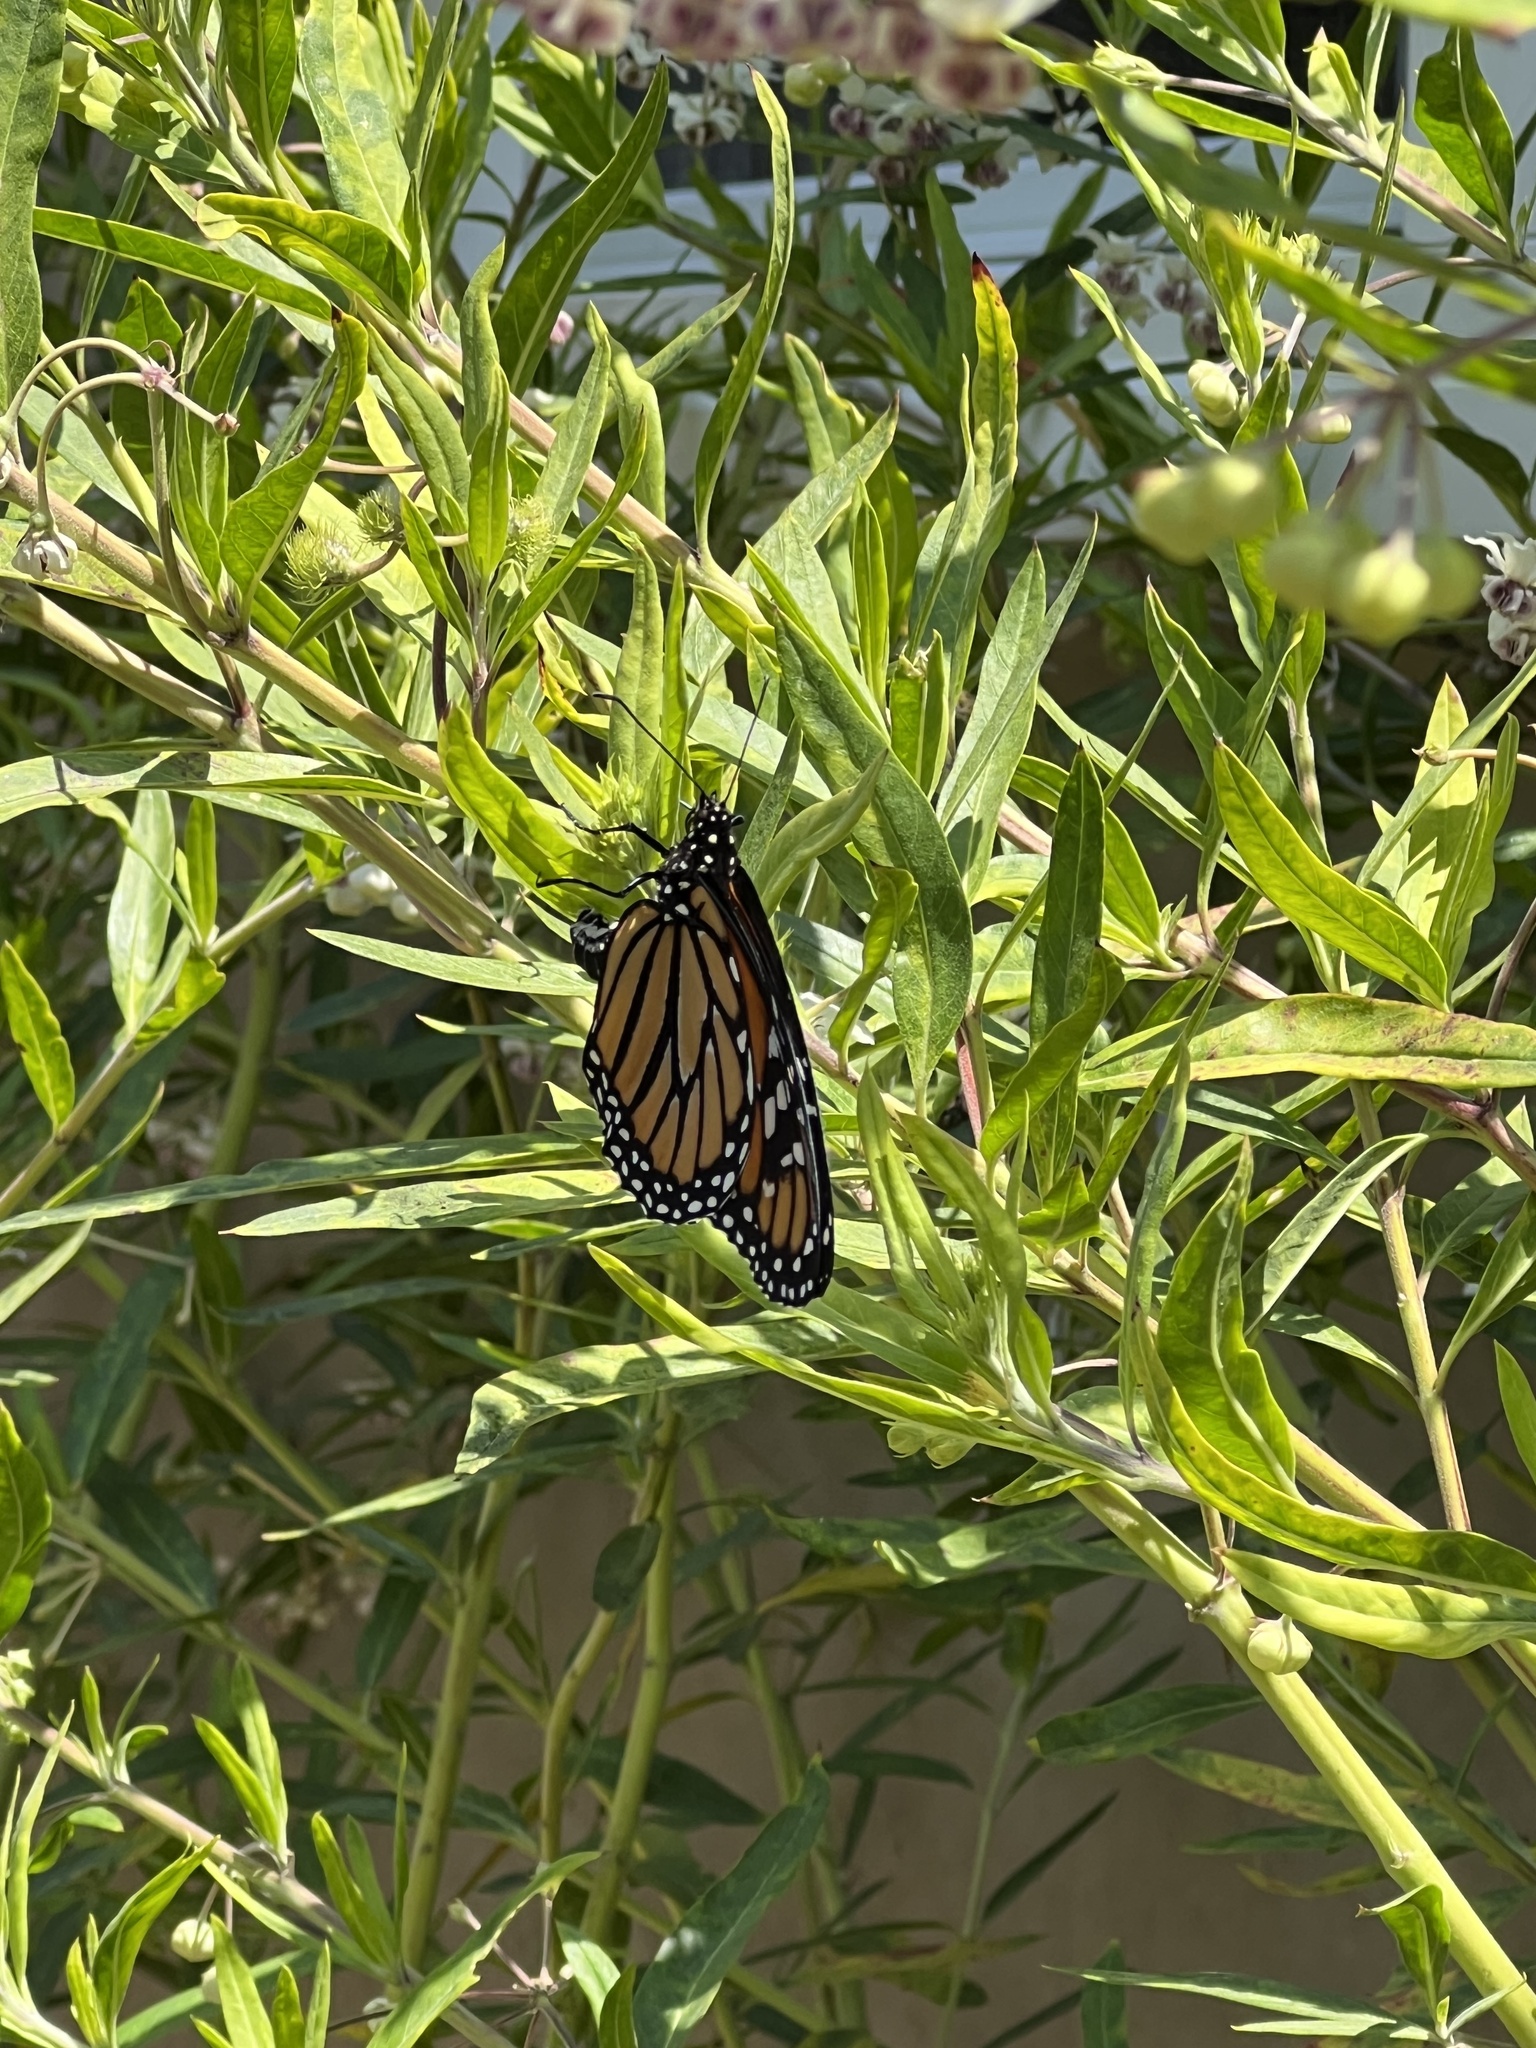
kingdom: Animalia
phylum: Arthropoda
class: Insecta
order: Lepidoptera
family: Nymphalidae
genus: Danaus
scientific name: Danaus plexippus
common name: Monarch
